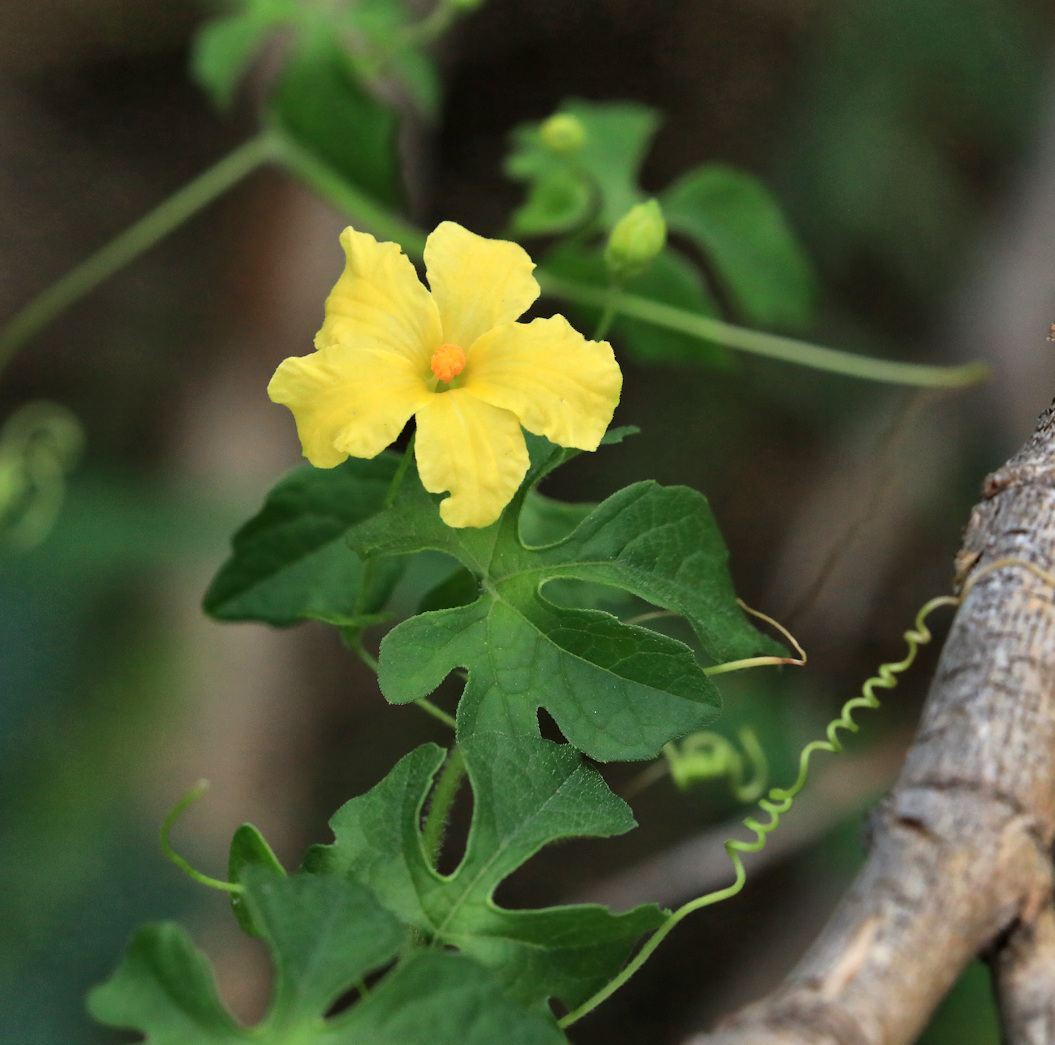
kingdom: Plantae
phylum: Tracheophyta
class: Magnoliopsida
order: Cucurbitales
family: Cucurbitaceae
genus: Momordica
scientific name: Momordica charantia
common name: Balsampear
